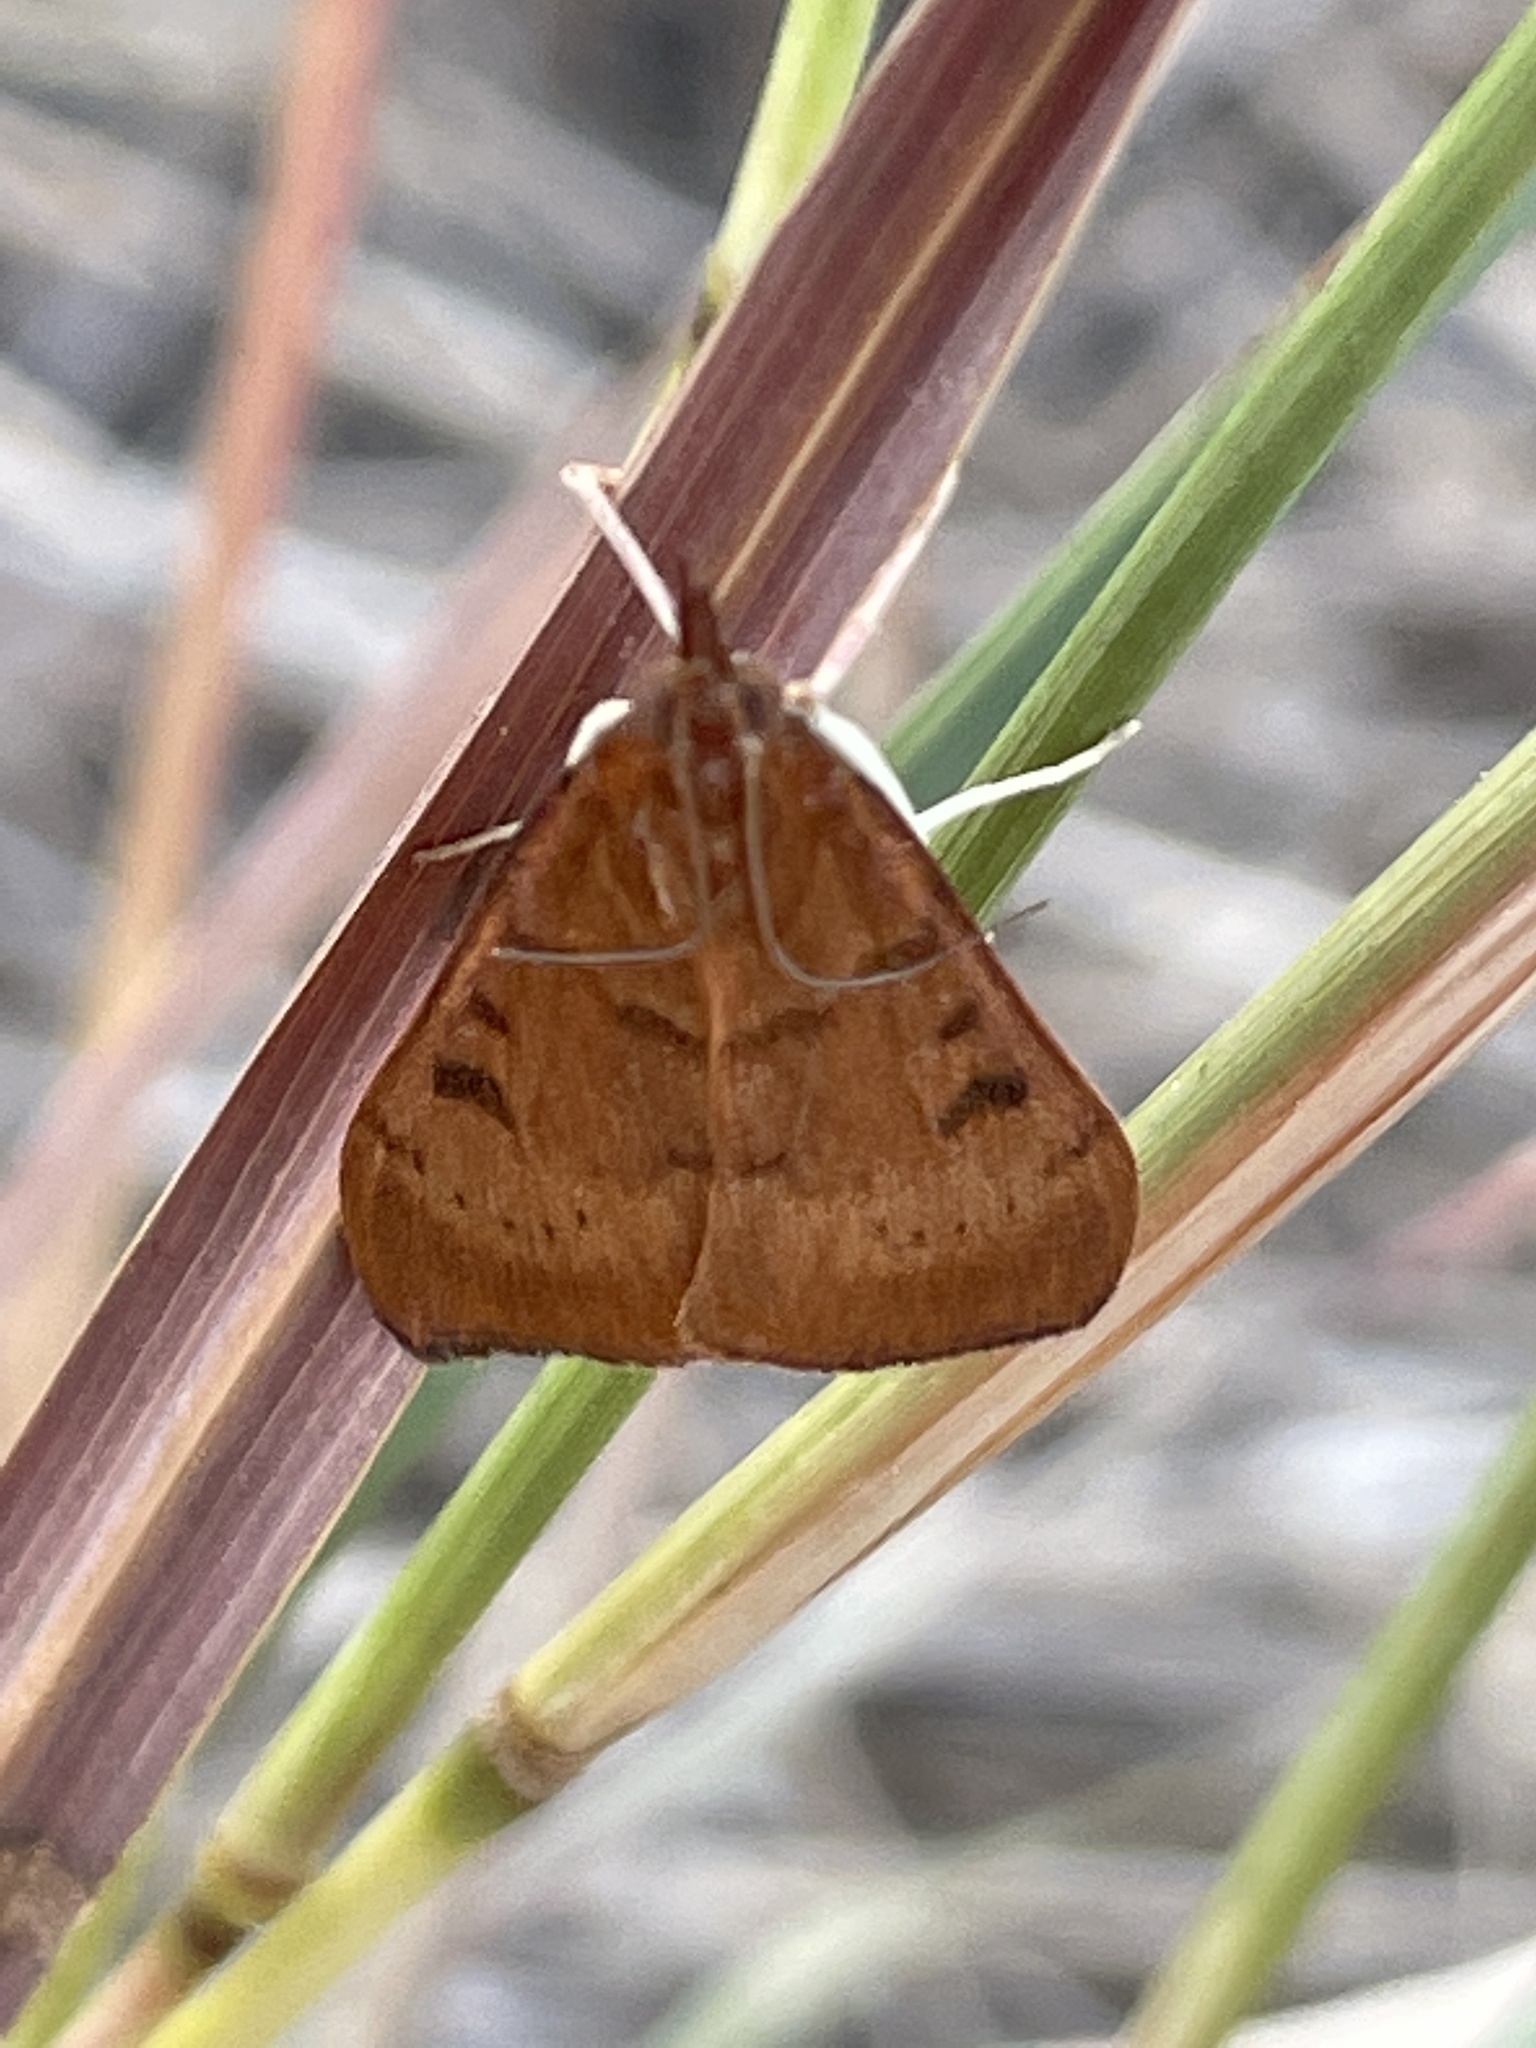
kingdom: Animalia
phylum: Arthropoda
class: Insecta
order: Lepidoptera
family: Crambidae
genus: Uresiphita
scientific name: Uresiphita reversalis
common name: Genista broom moth
